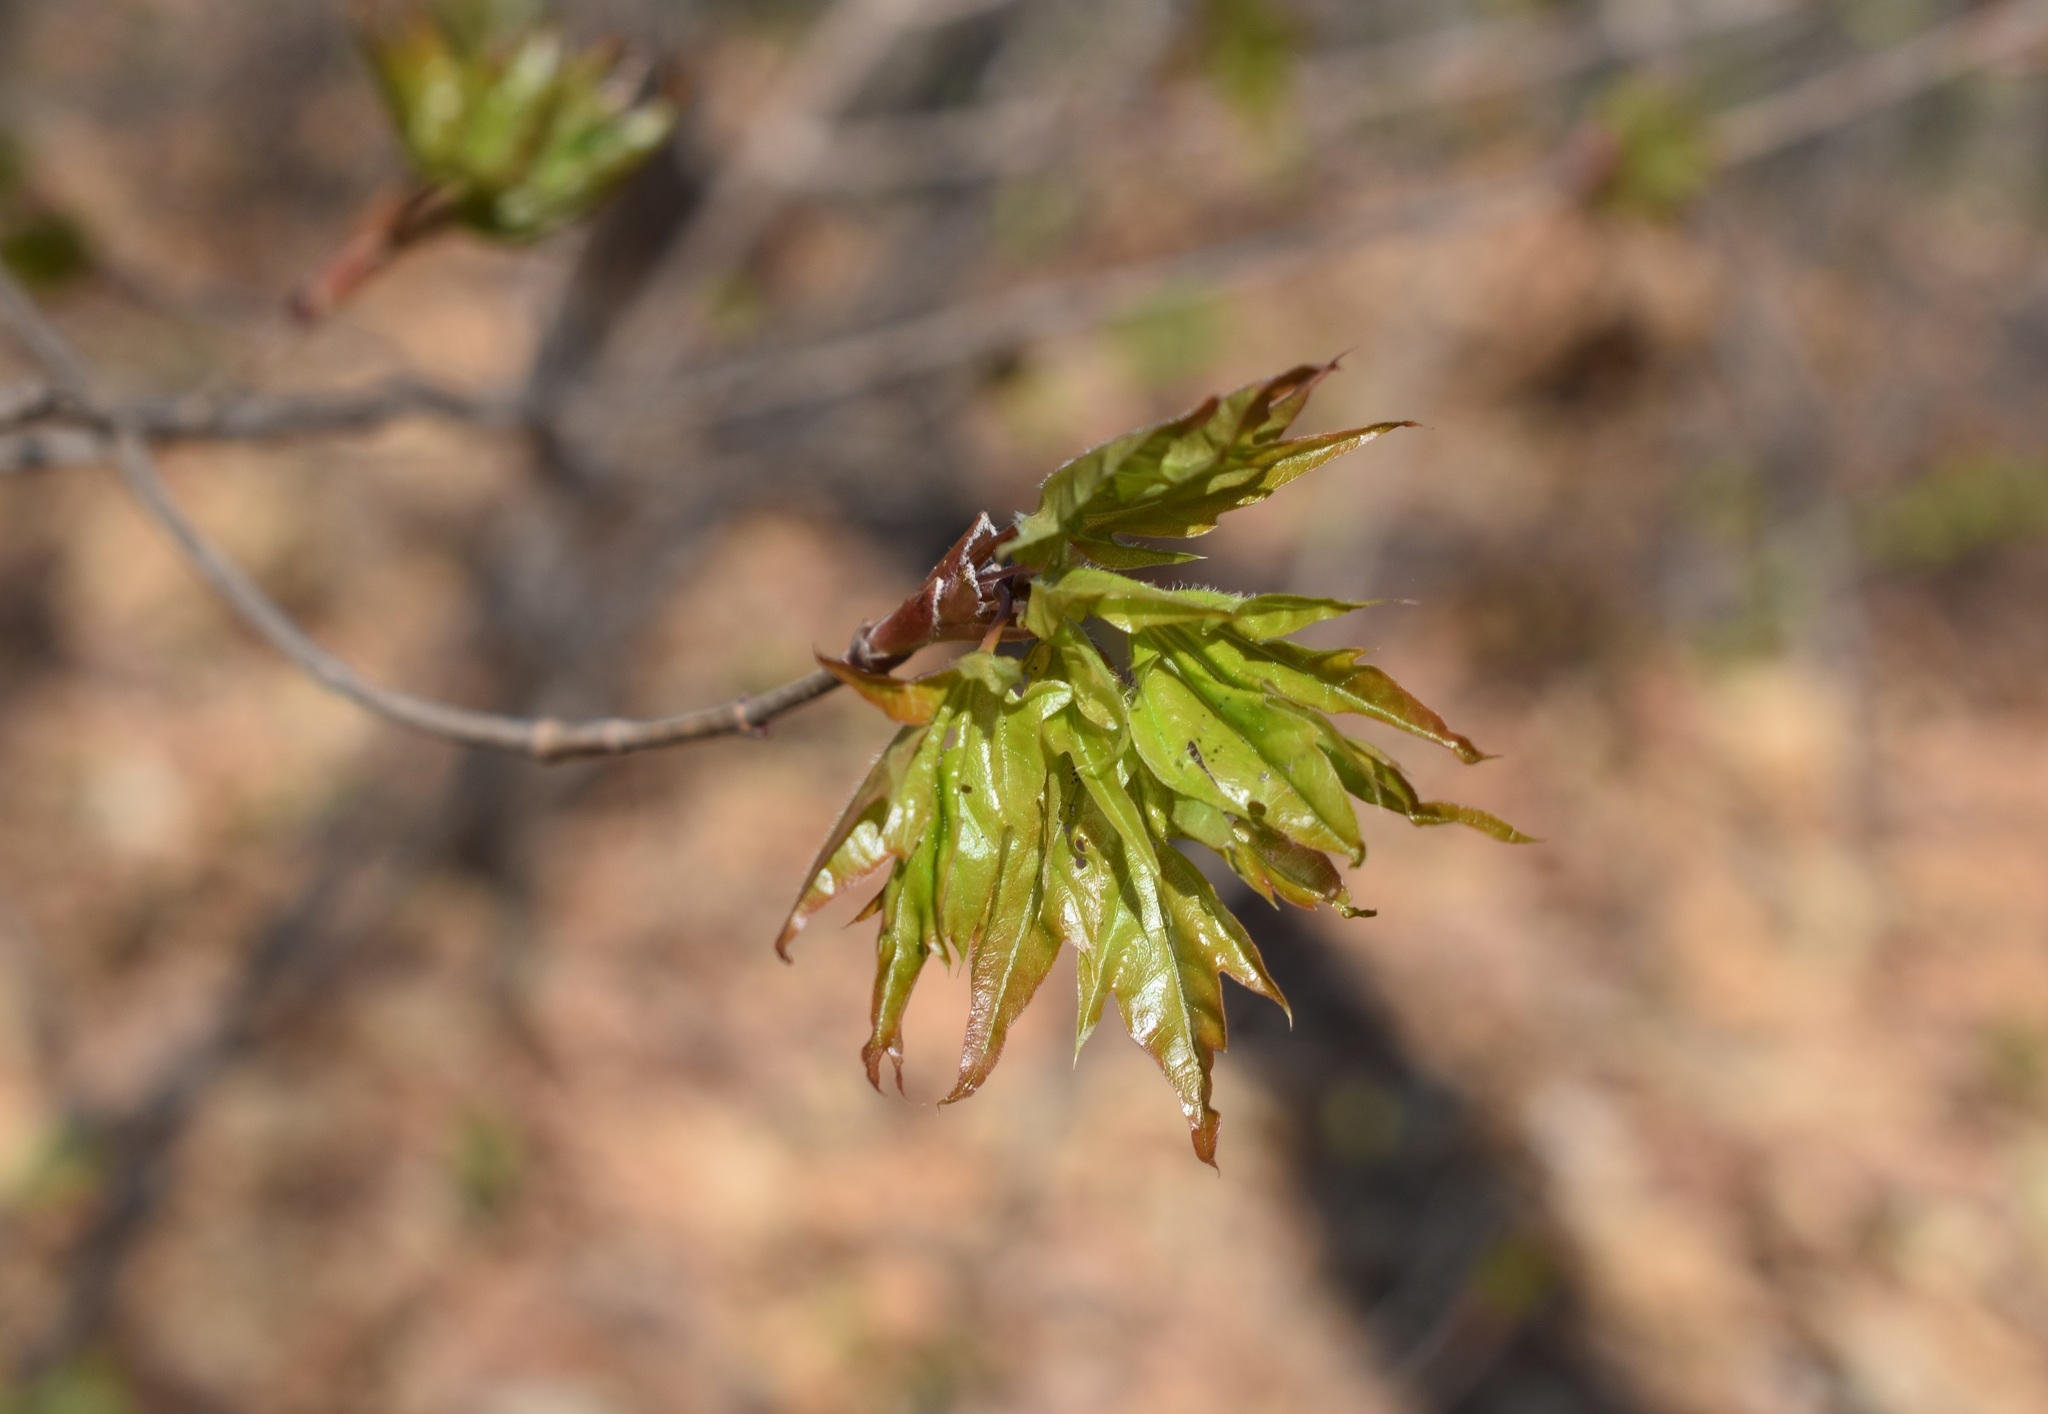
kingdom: Plantae
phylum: Tracheophyta
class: Magnoliopsida
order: Sapindales
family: Sapindaceae
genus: Acer
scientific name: Acer pictum
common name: The painted maple
